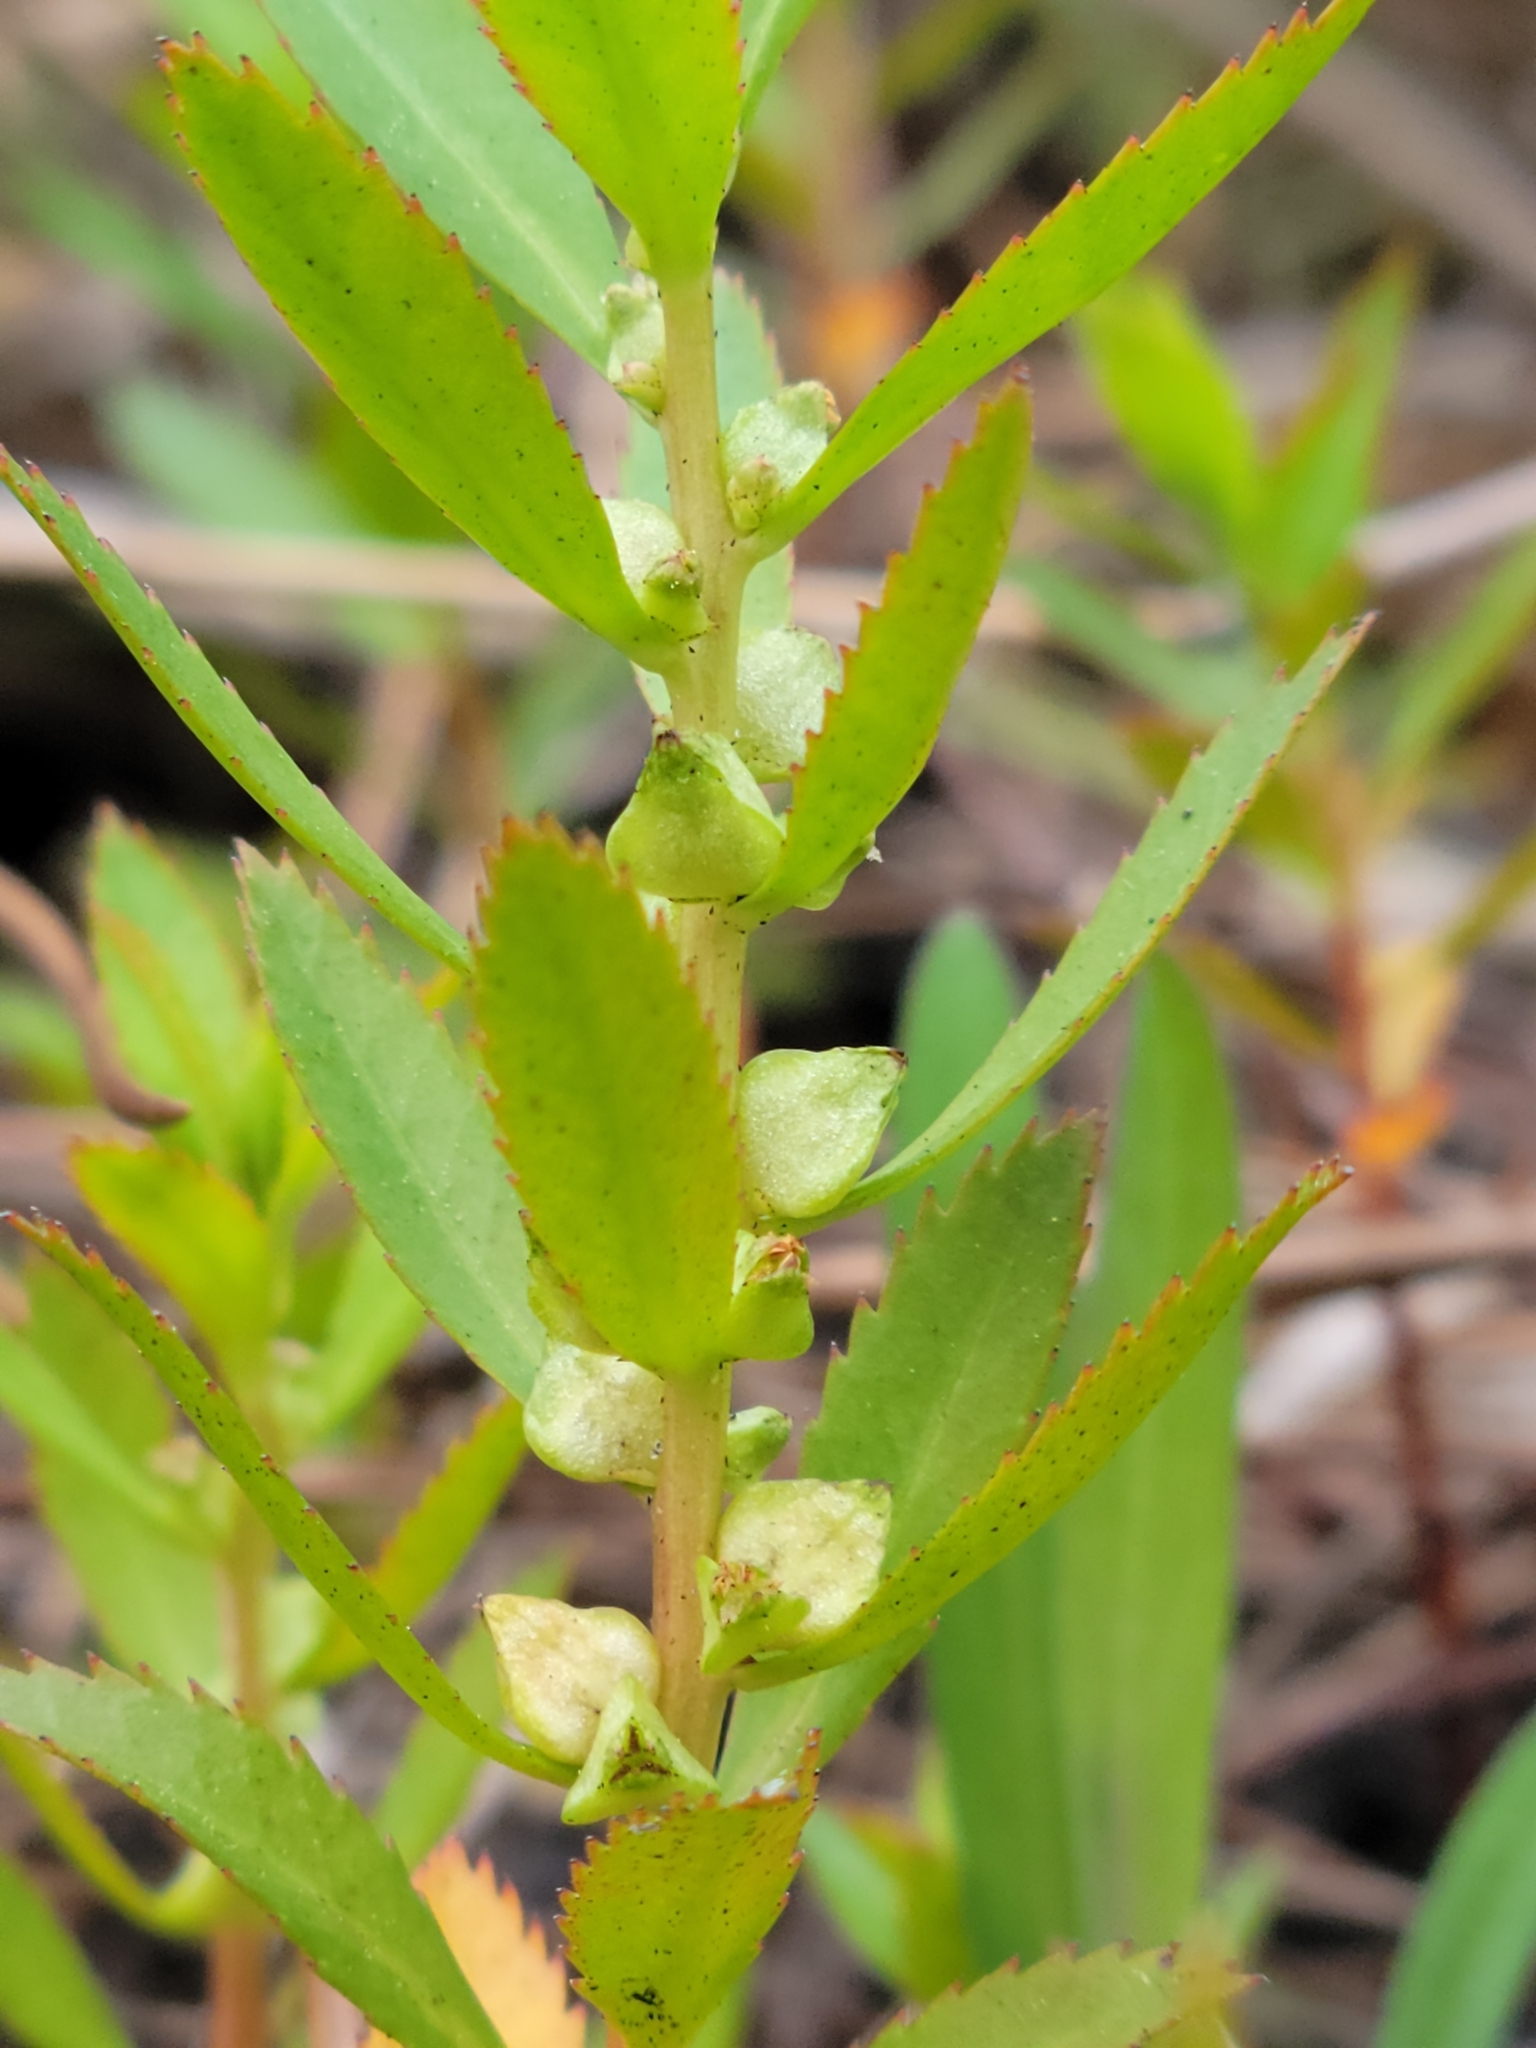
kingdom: Plantae
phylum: Tracheophyta
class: Magnoliopsida
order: Saxifragales
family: Haloragaceae
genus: Proserpinaca
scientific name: Proserpinaca palustris
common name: Marsh mermaidweed
